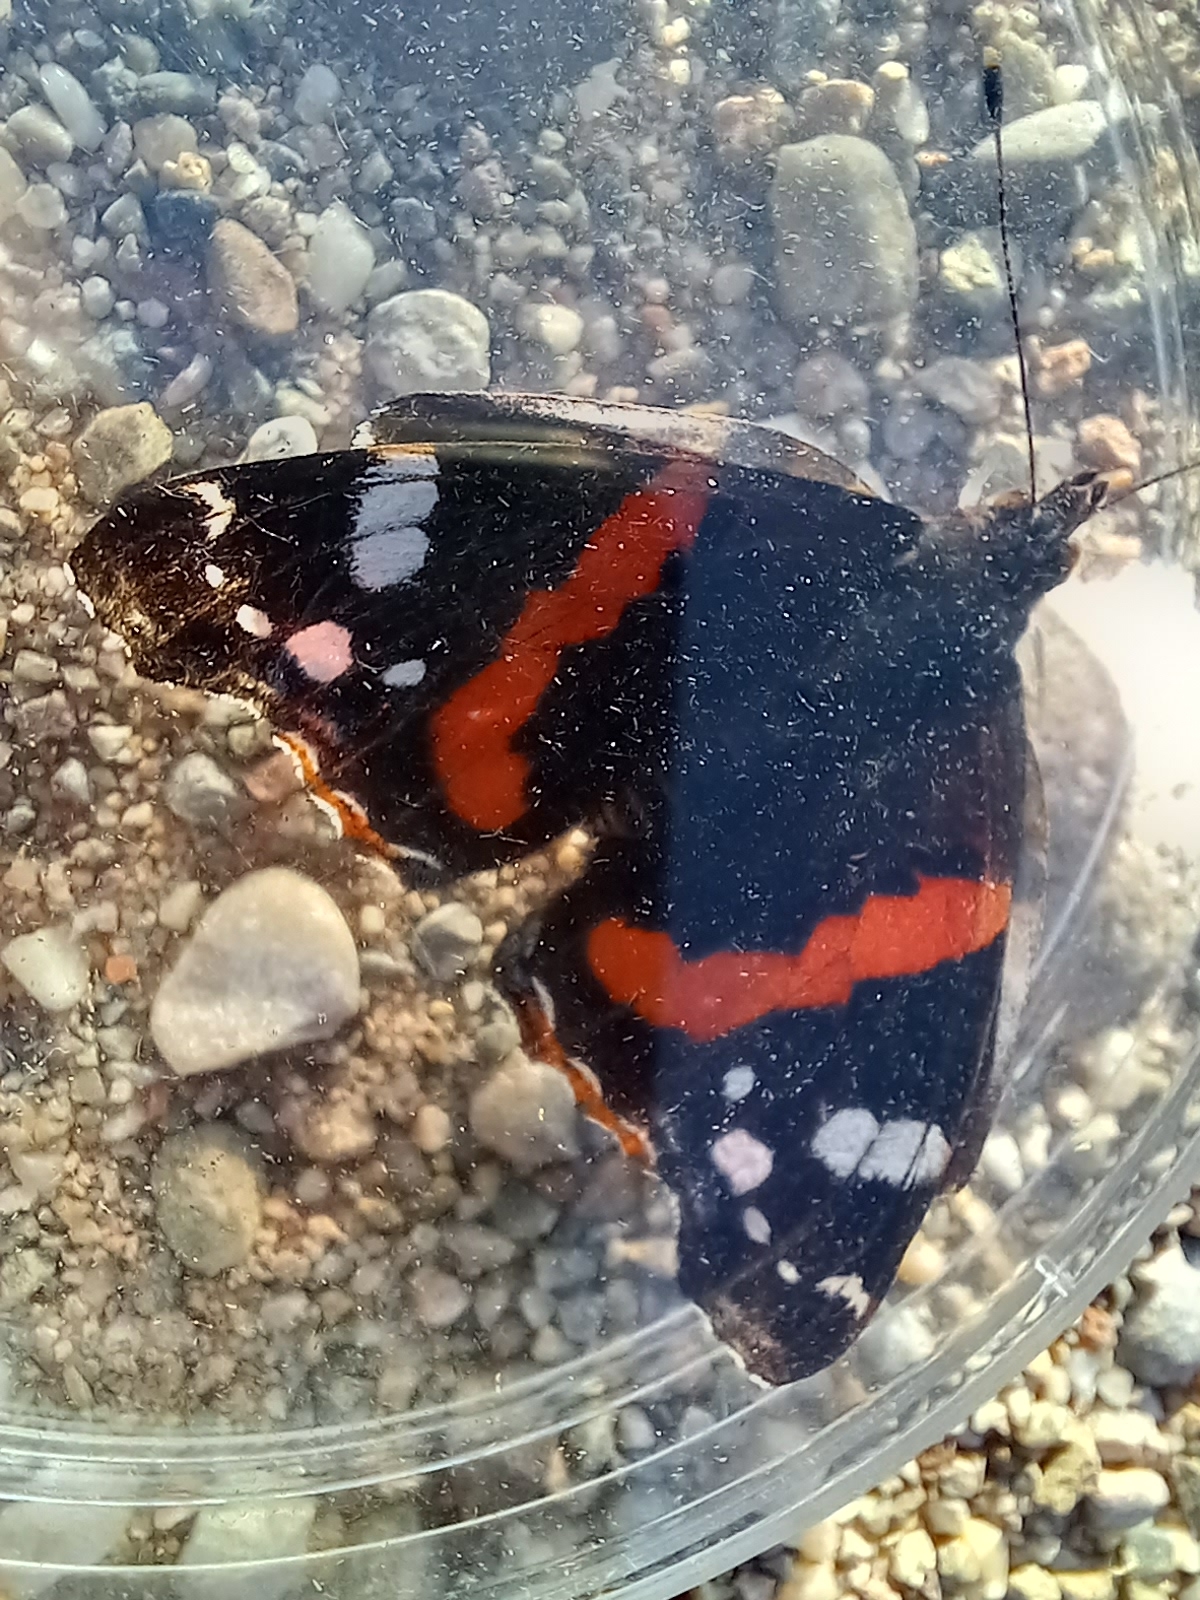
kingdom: Animalia
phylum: Arthropoda
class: Insecta
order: Lepidoptera
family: Nymphalidae
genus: Vanessa
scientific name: Vanessa atalanta
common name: Red admiral
